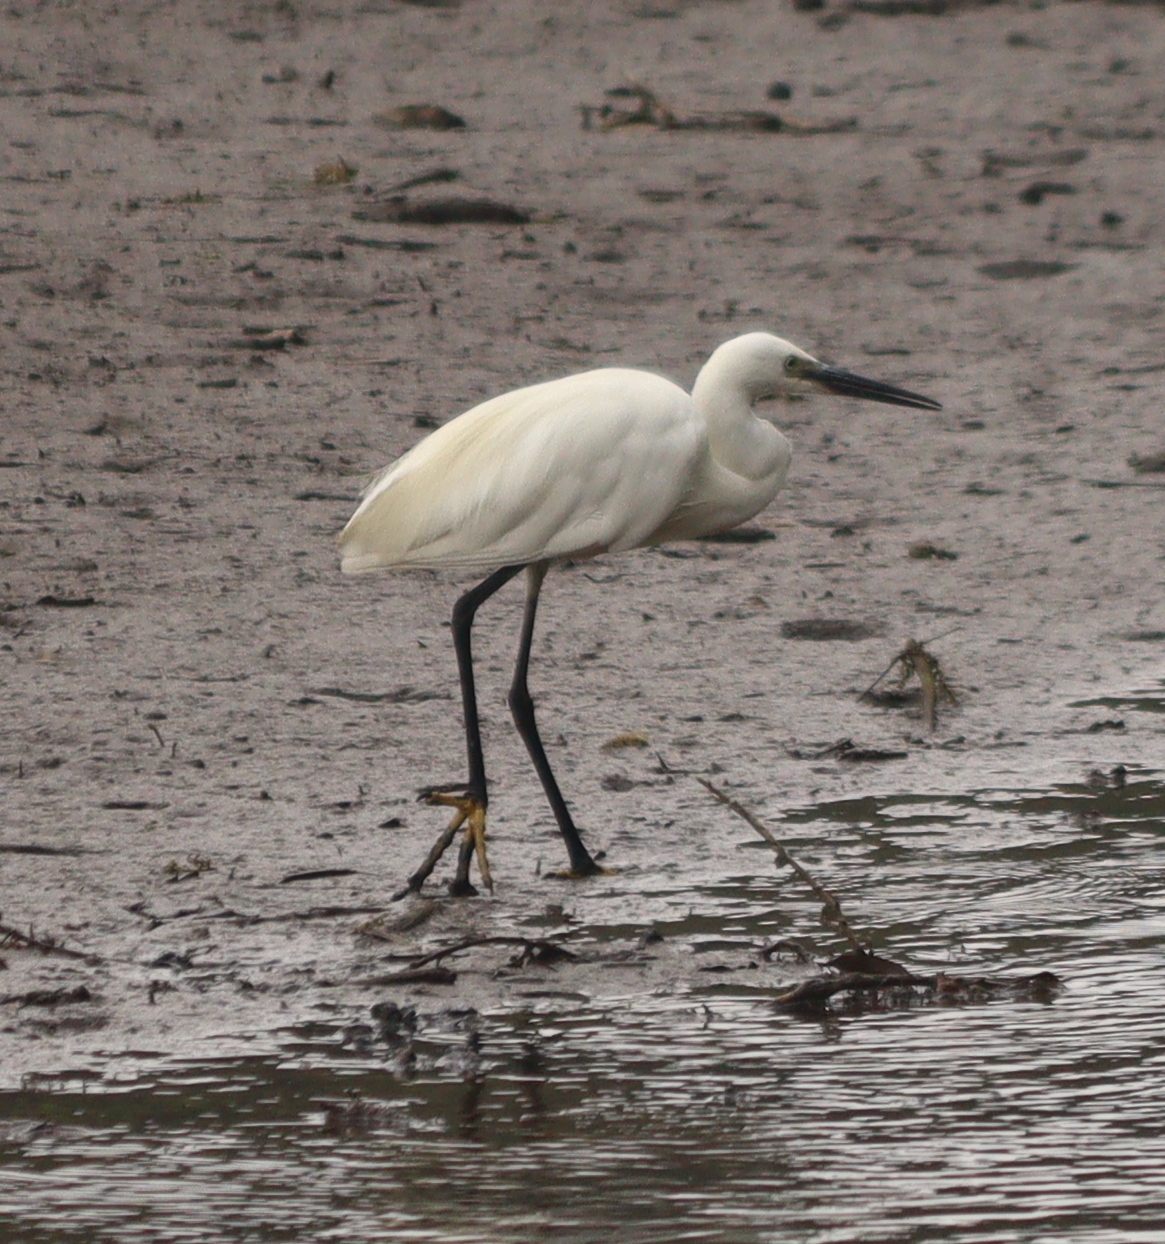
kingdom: Animalia
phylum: Chordata
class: Aves
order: Pelecaniformes
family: Ardeidae
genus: Egretta
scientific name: Egretta garzetta
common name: Little egret
